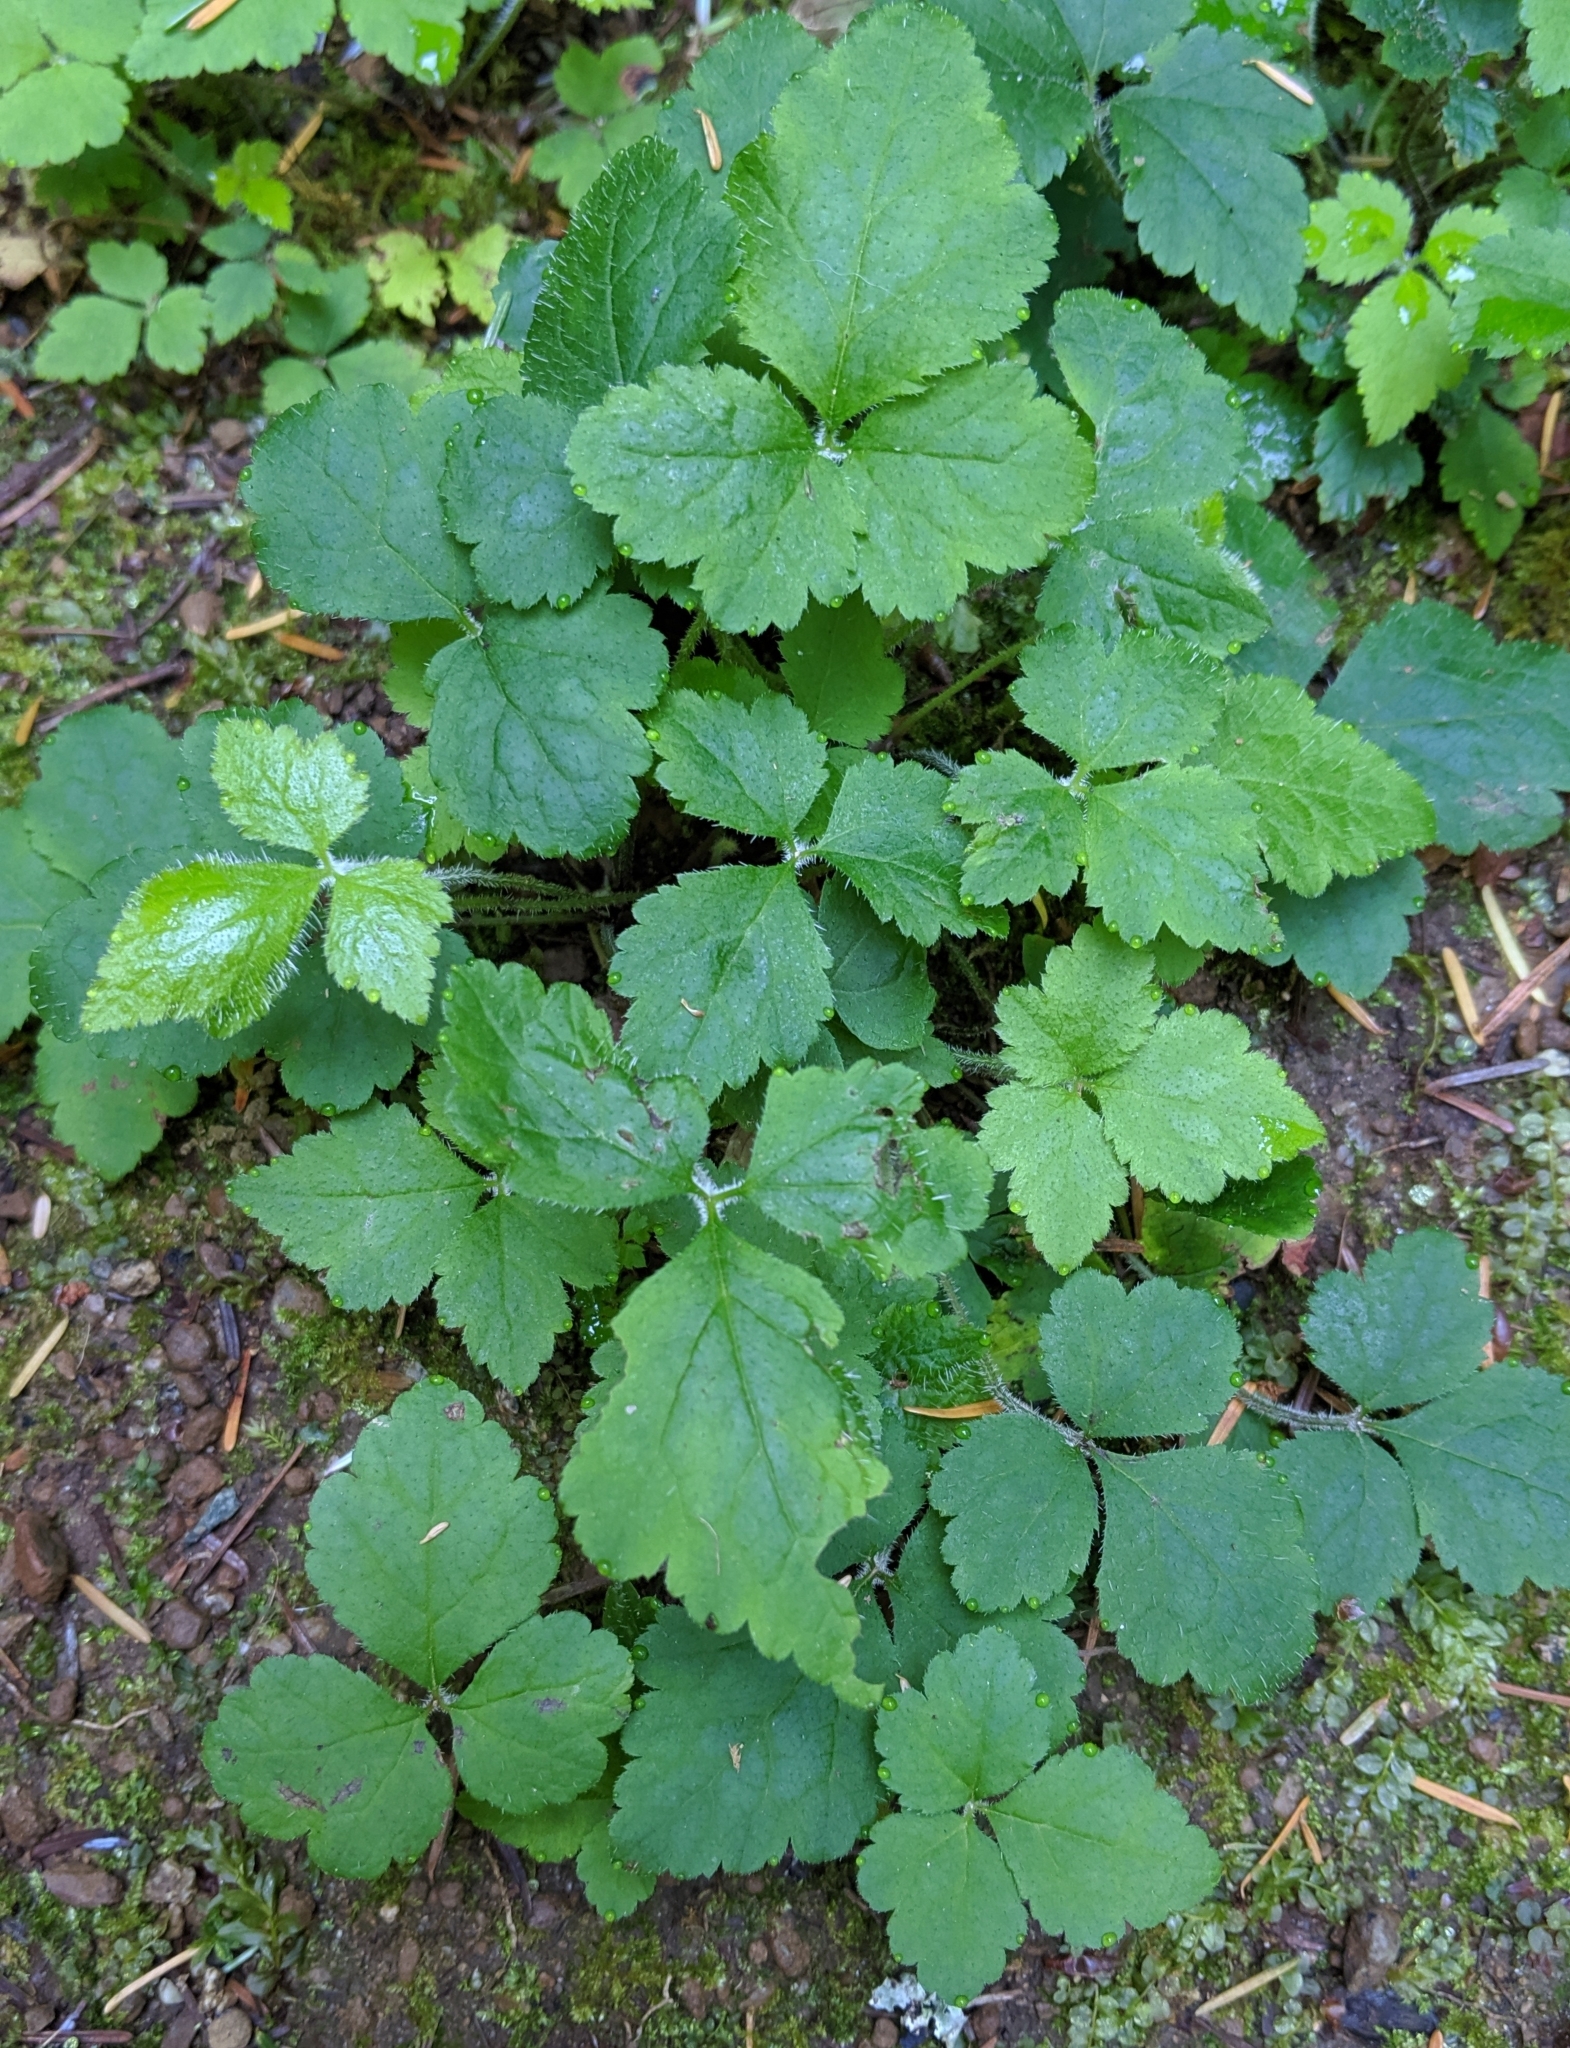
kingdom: Plantae
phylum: Tracheophyta
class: Magnoliopsida
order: Saxifragales
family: Saxifragaceae
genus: Tiarella
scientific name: Tiarella trifoliata
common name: Sugar-scoop
